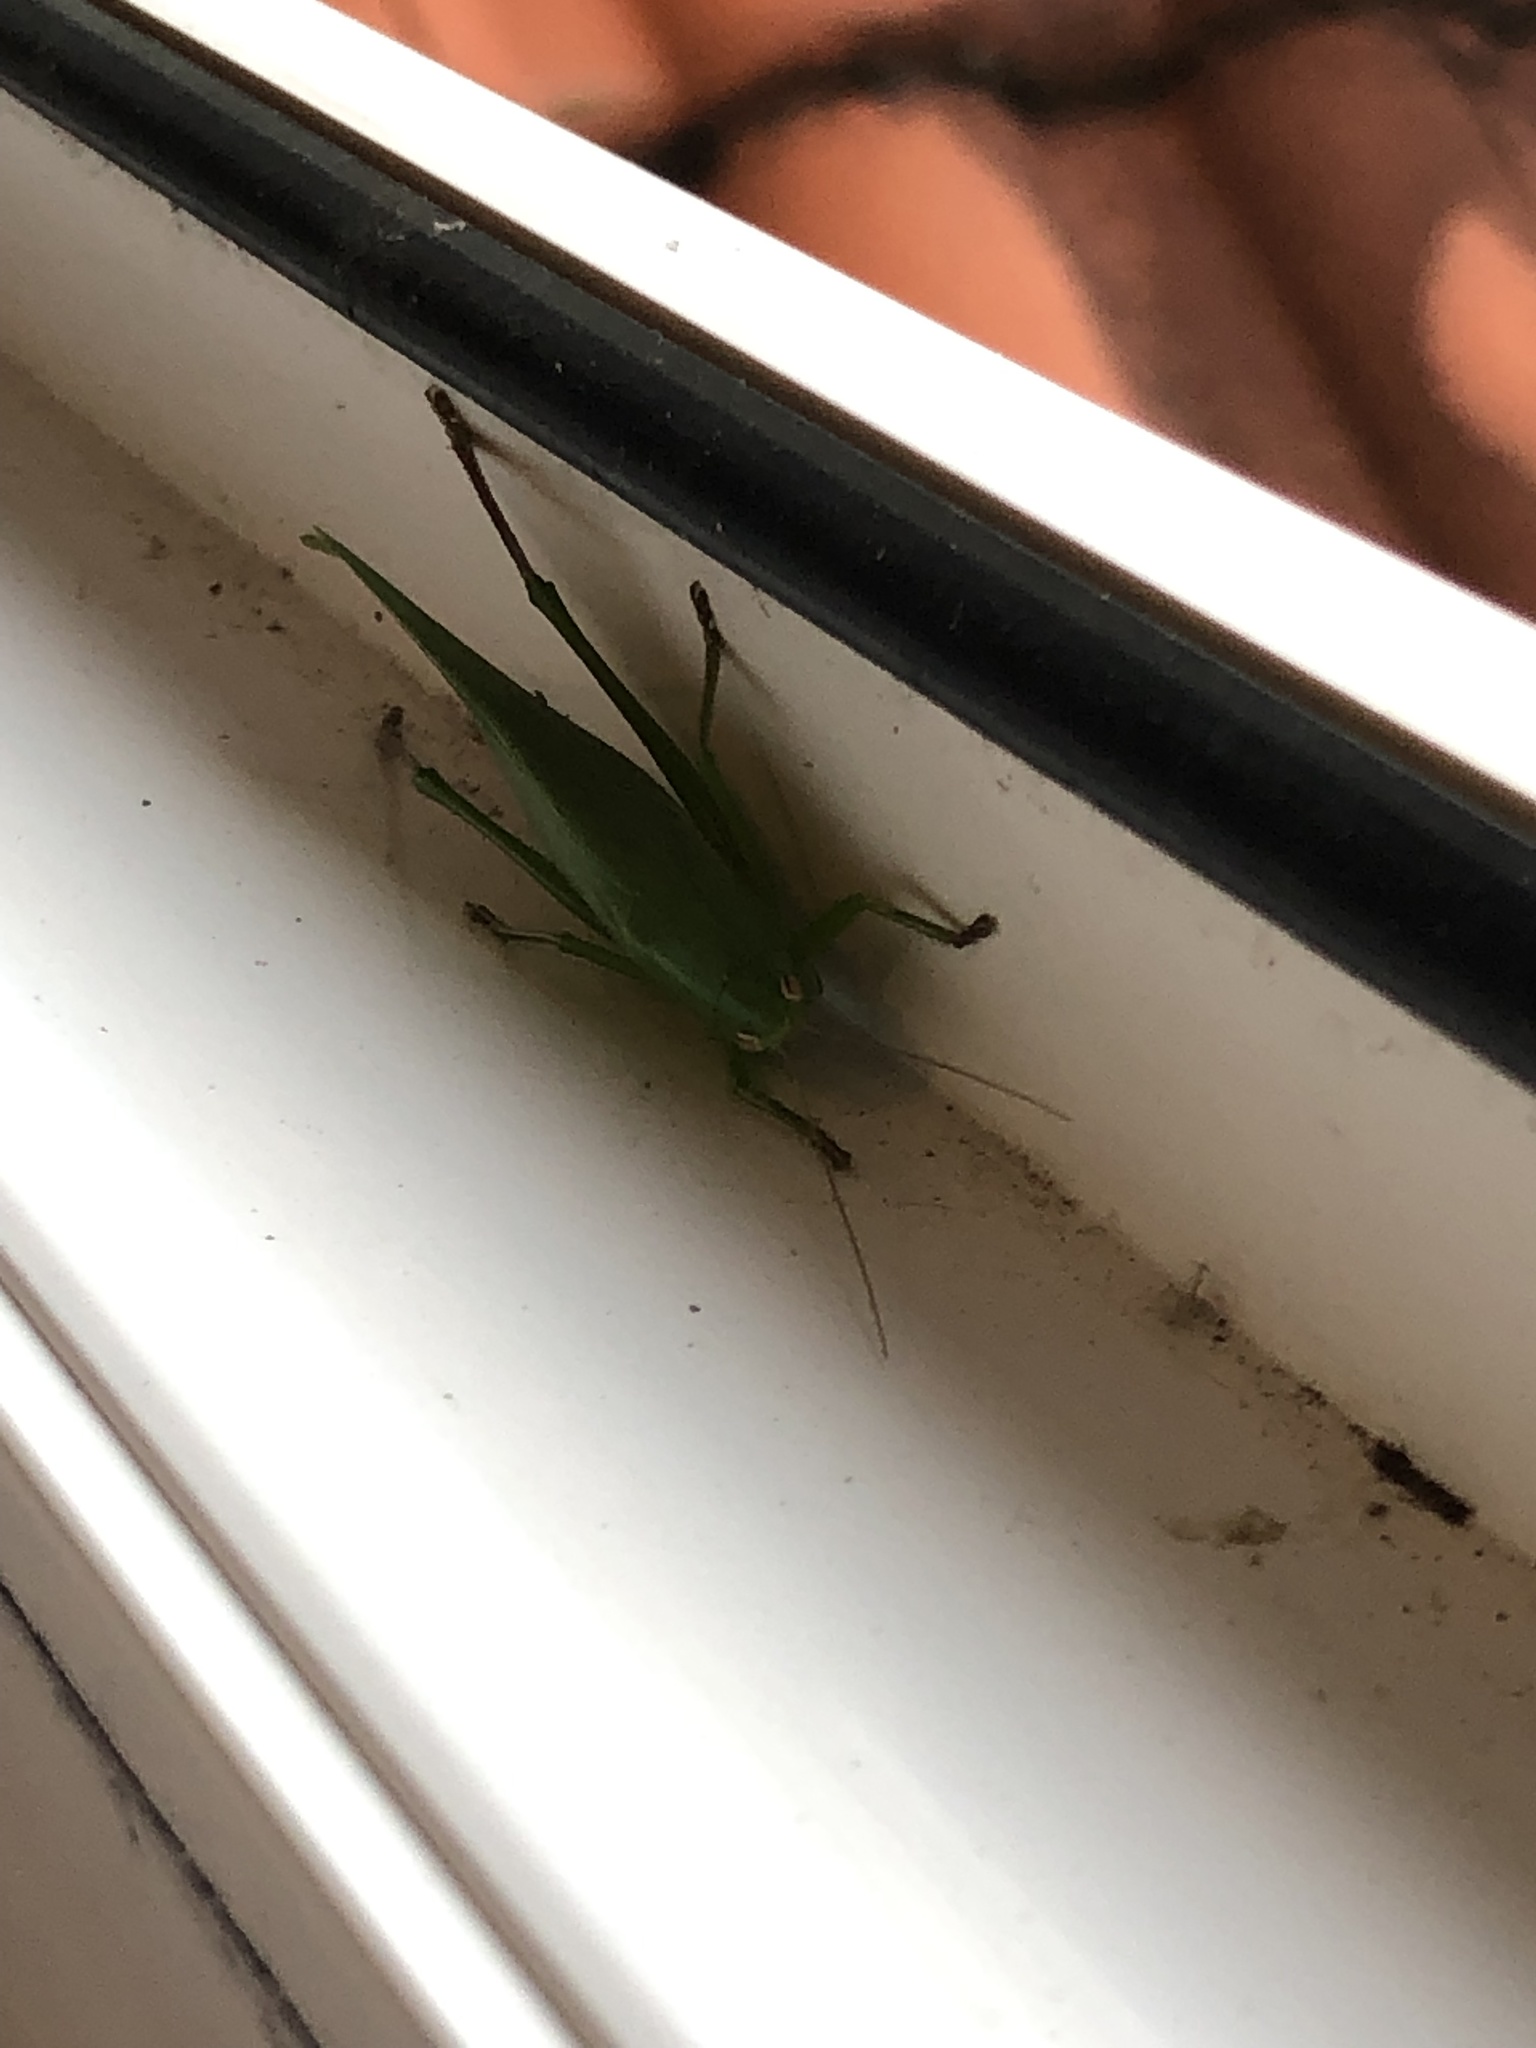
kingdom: Animalia
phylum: Arthropoda
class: Insecta
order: Orthoptera
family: Tettigoniidae
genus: Ruspolia
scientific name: Ruspolia nitidula
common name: Large conehead
